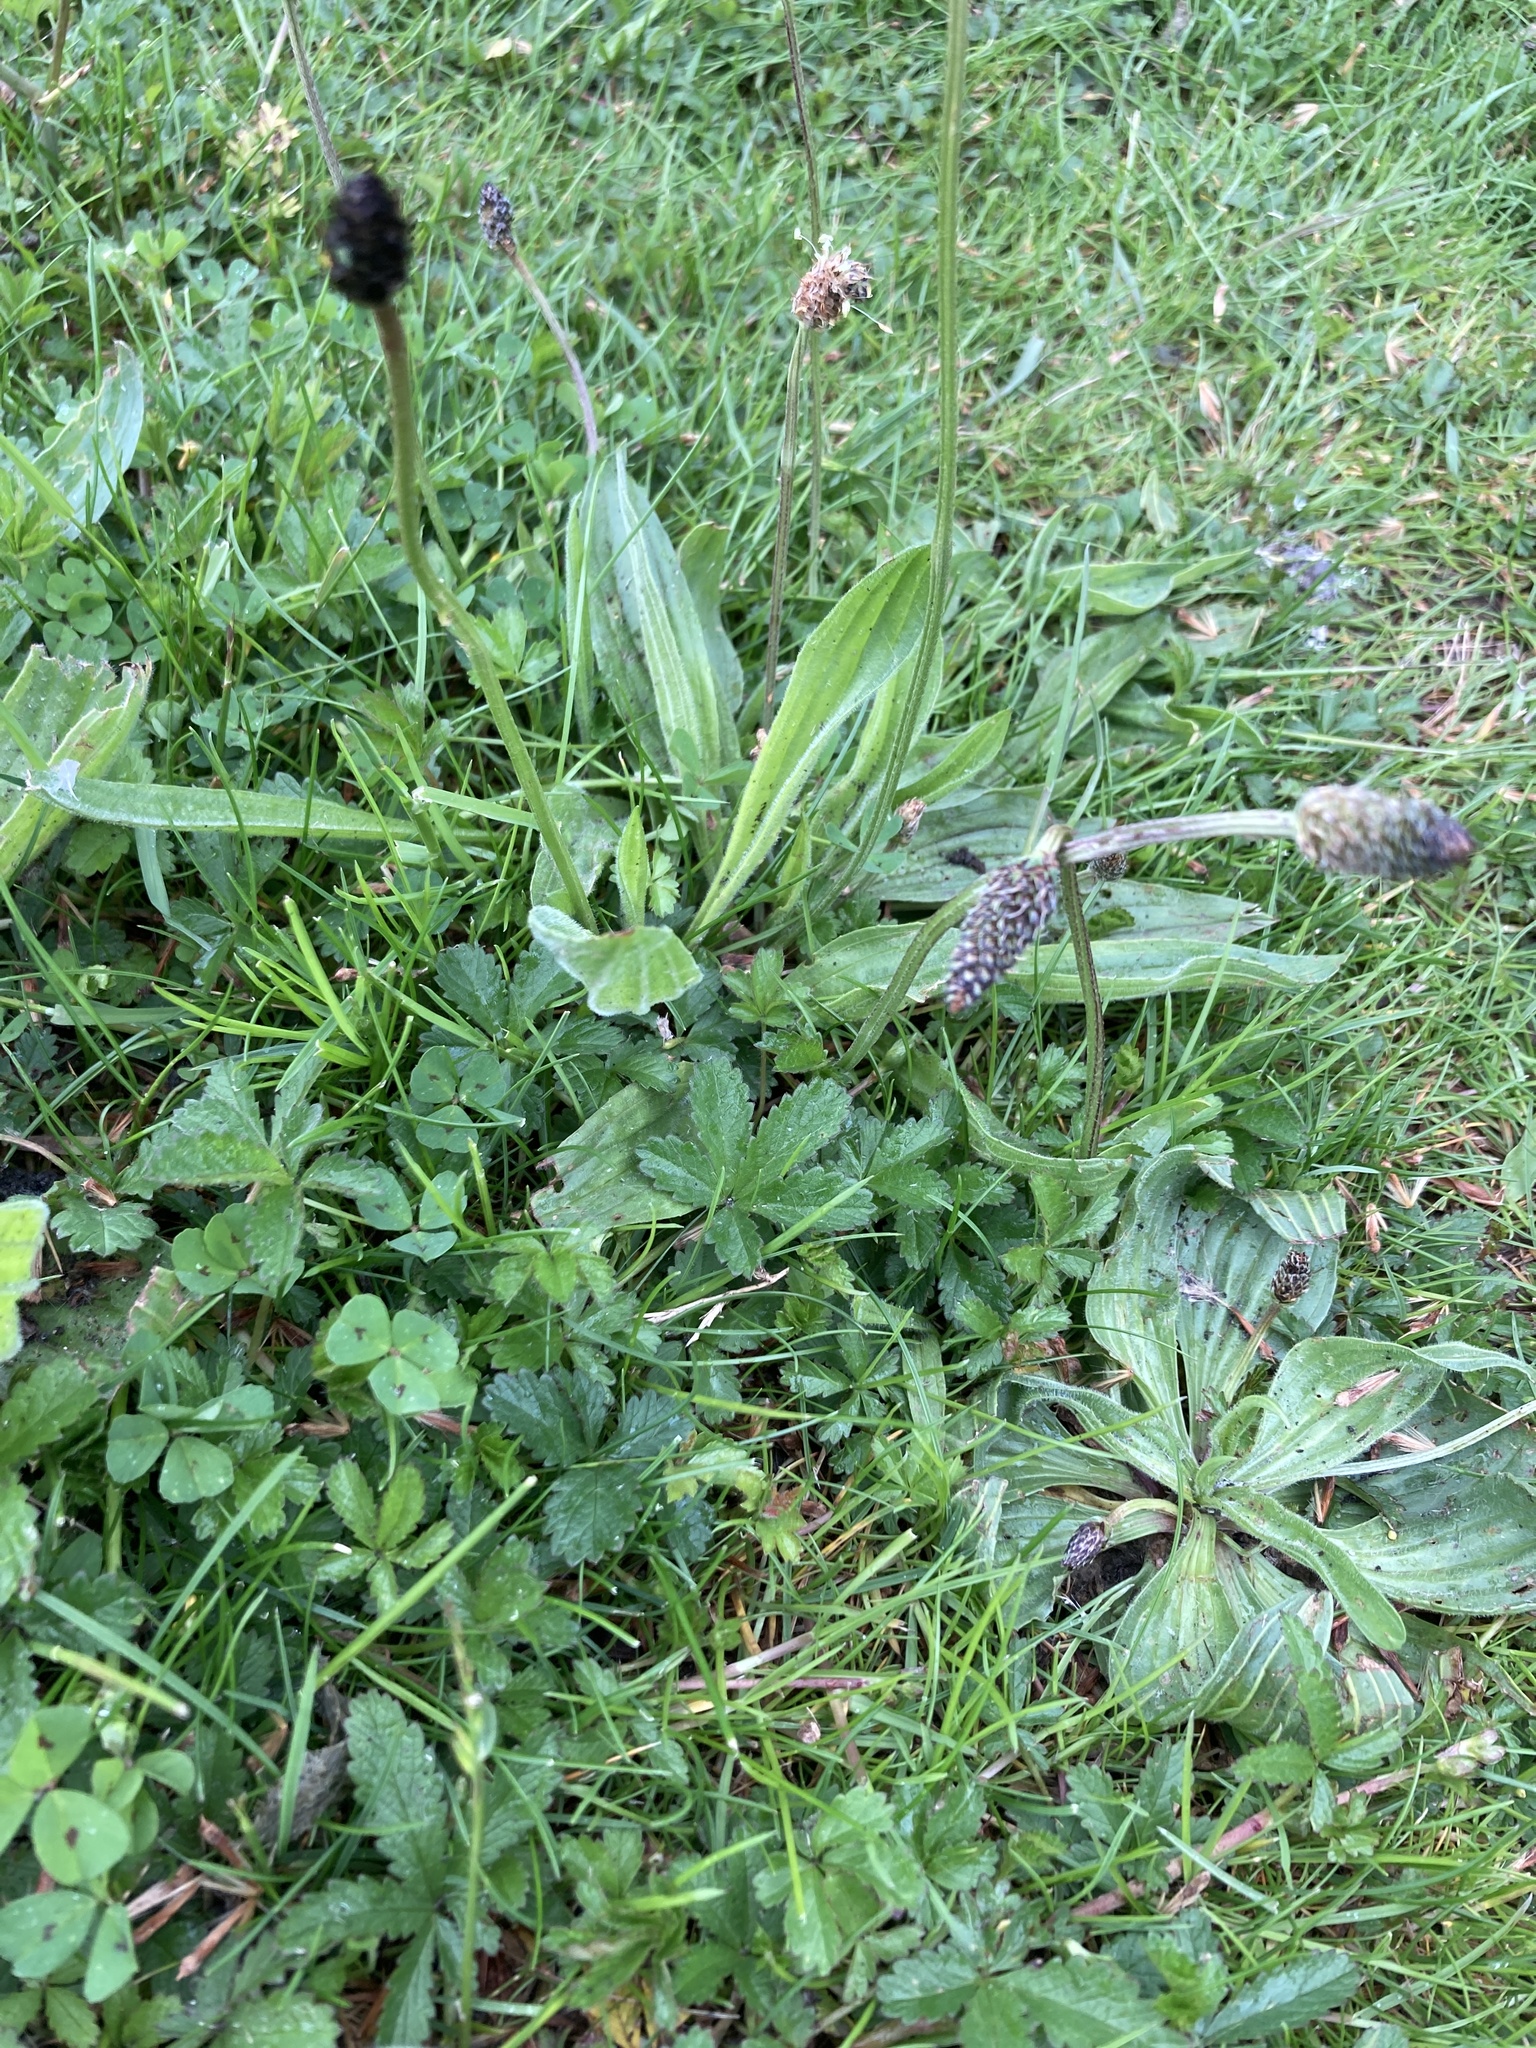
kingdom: Plantae
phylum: Tracheophyta
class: Magnoliopsida
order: Lamiales
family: Plantaginaceae
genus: Plantago
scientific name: Plantago lanceolata
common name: Ribwort plantain
